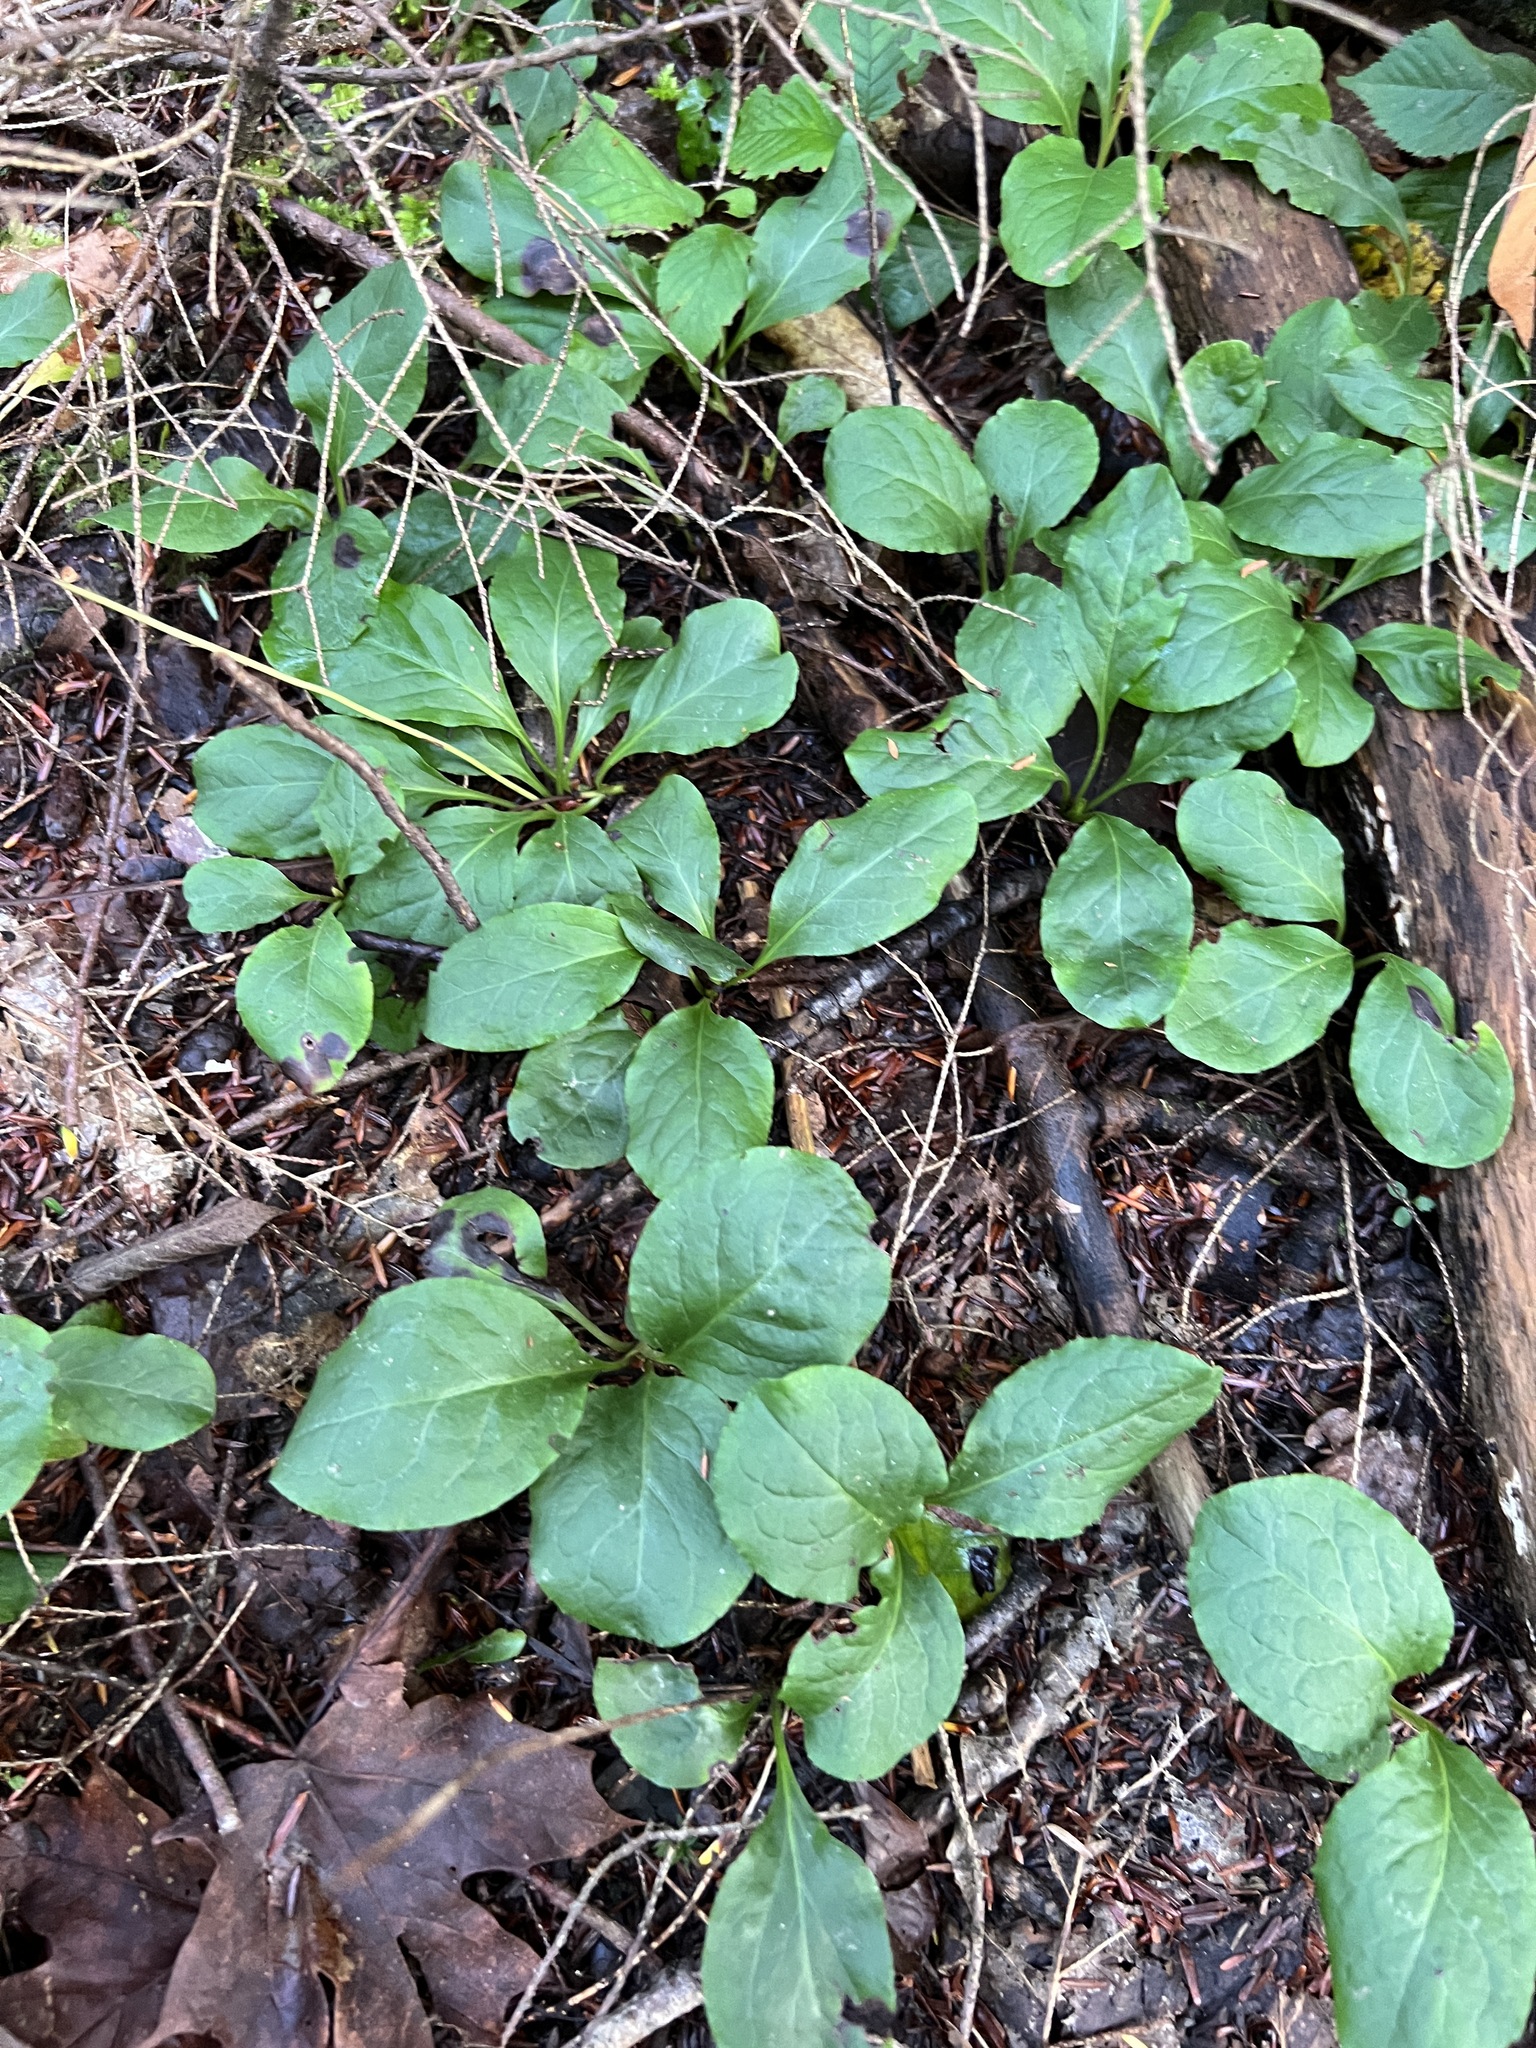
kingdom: Plantae
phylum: Tracheophyta
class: Magnoliopsida
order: Ericales
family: Ericaceae
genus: Pyrola
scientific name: Pyrola elliptica
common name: Shinleaf
